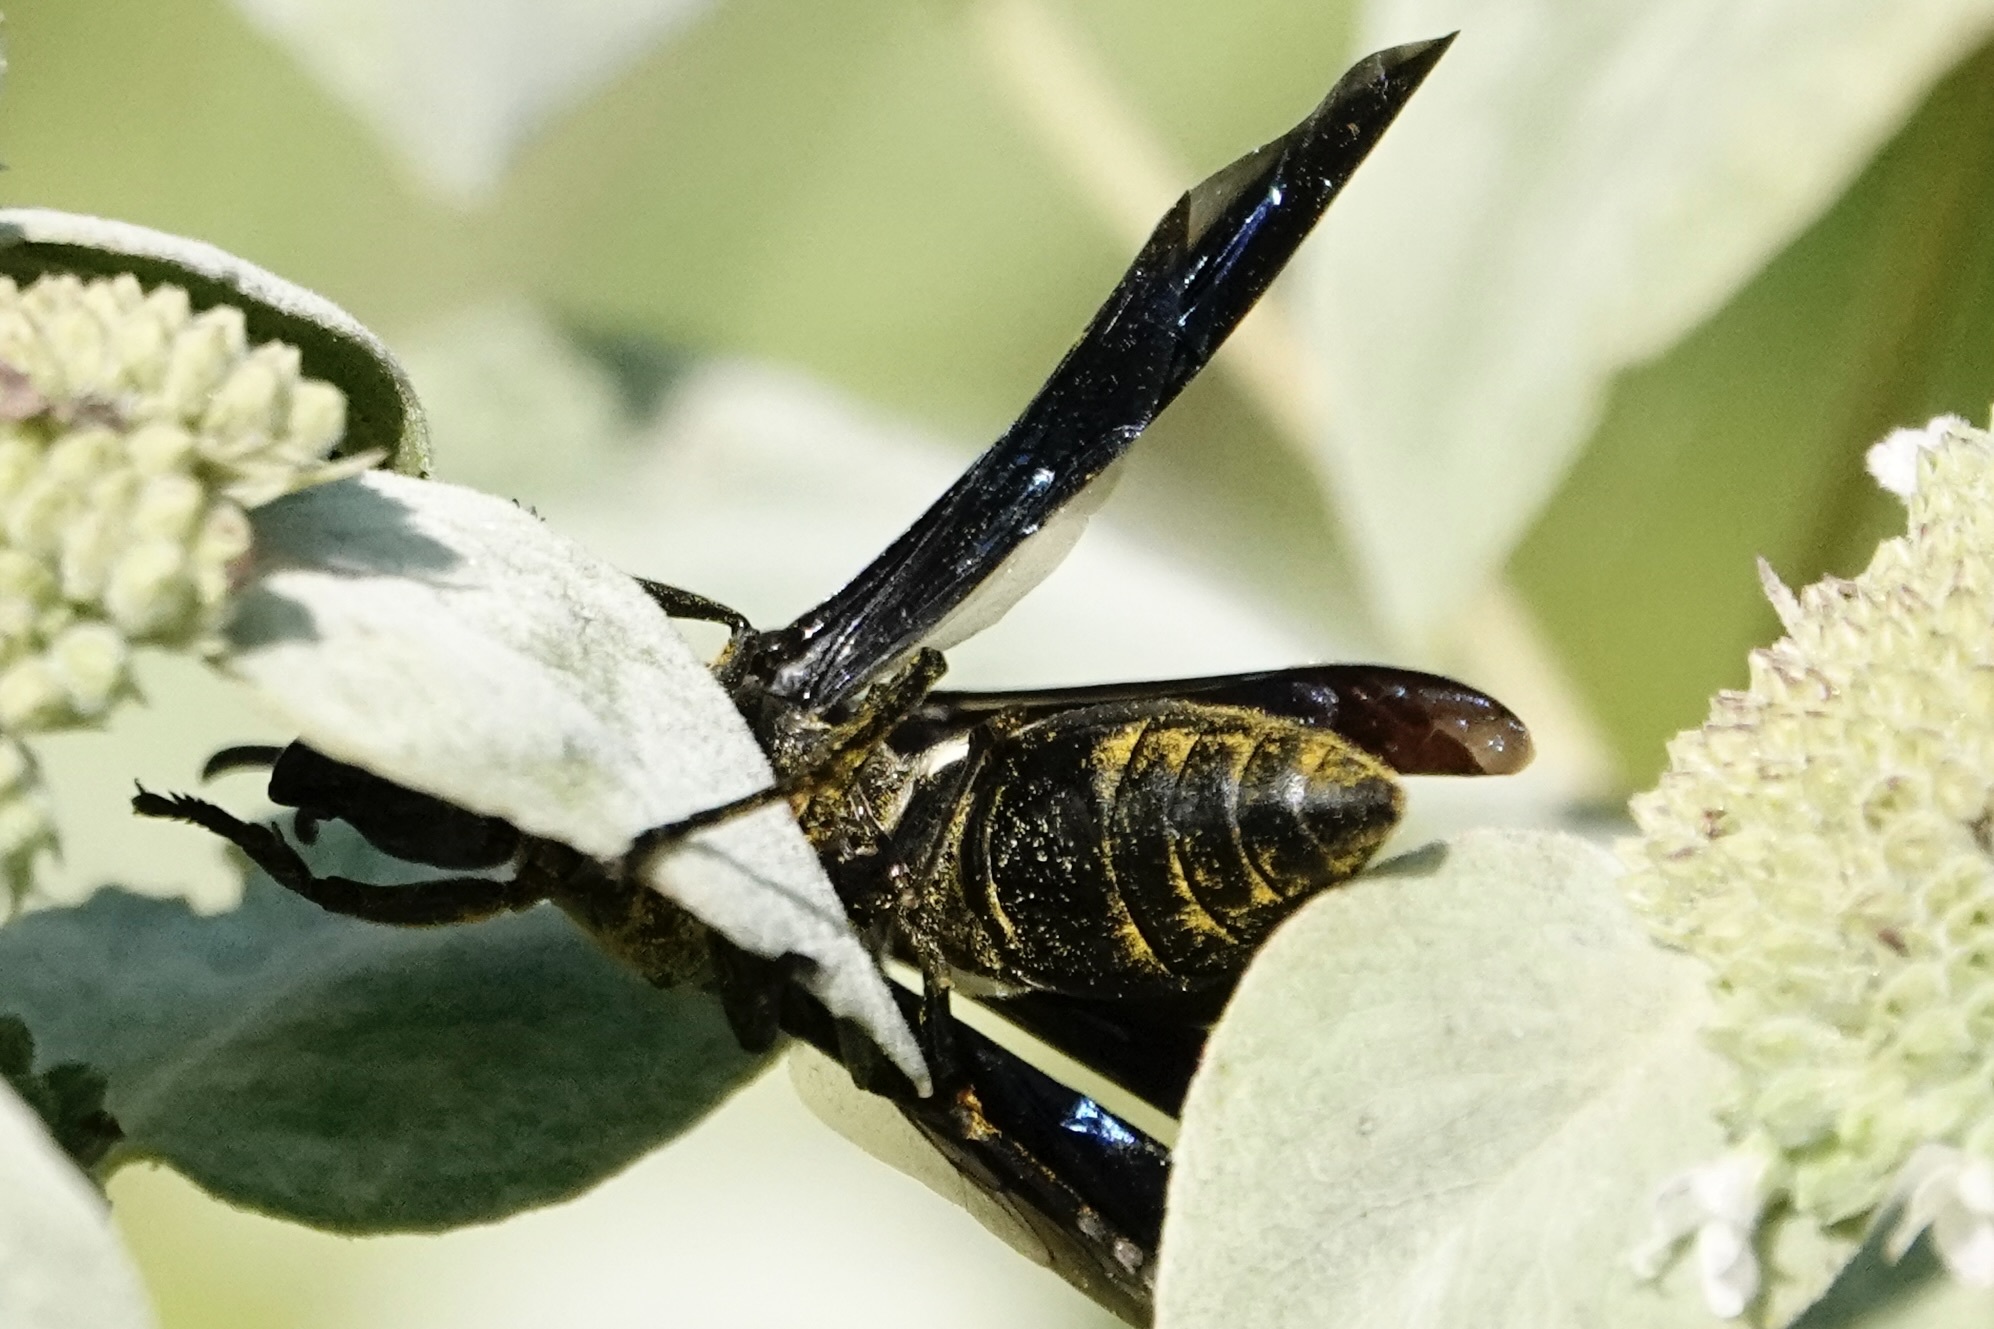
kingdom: Animalia
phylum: Arthropoda
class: Insecta
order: Hymenoptera
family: Crabronidae
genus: Tachytes
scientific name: Tachytes guatemalensis
